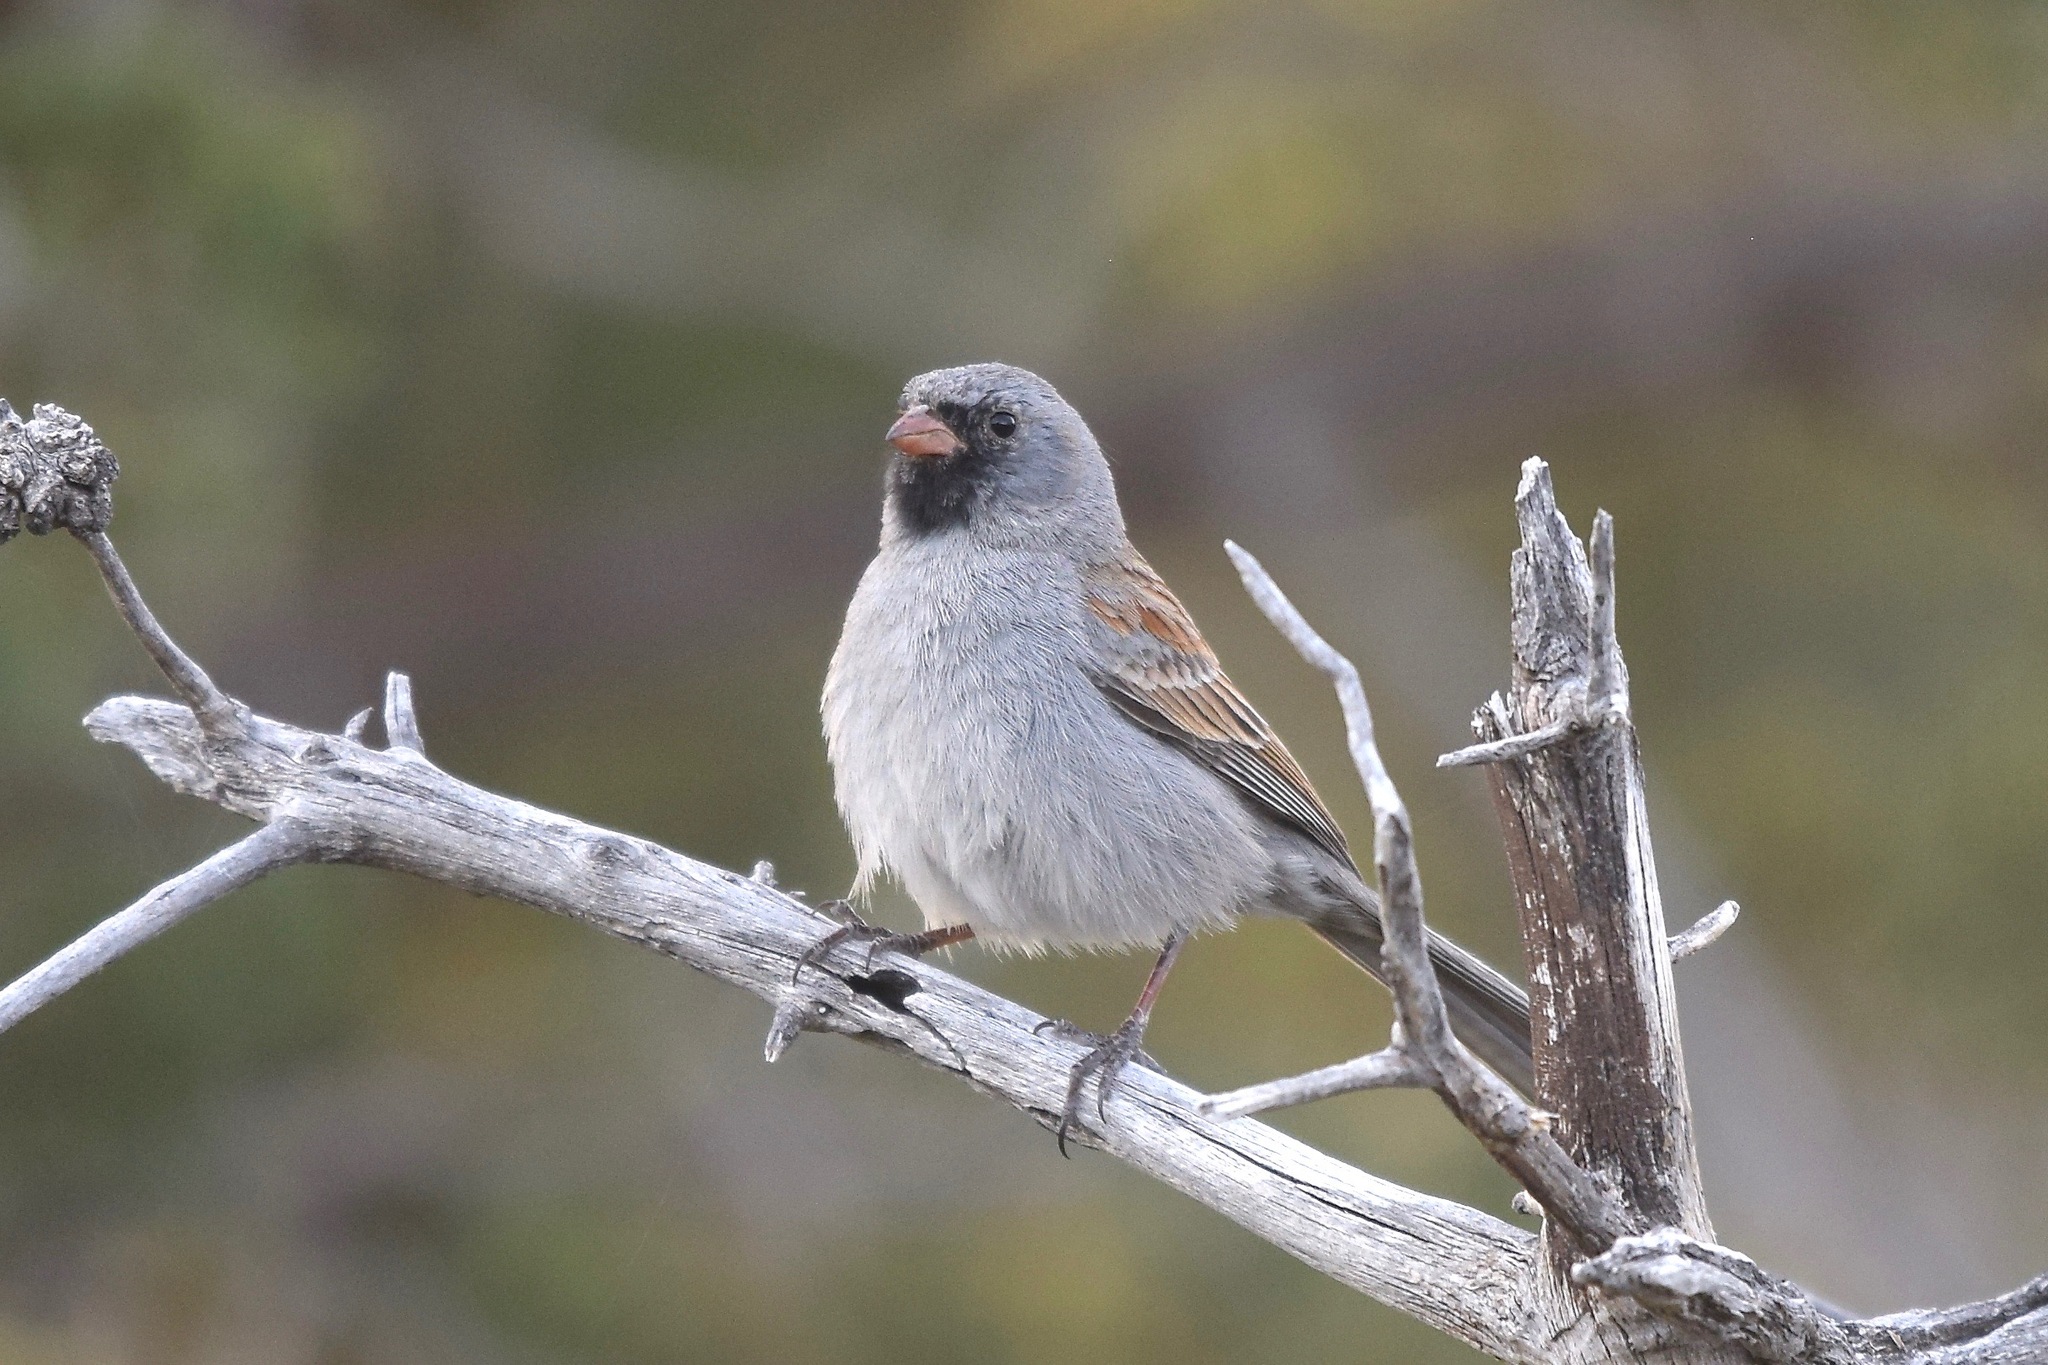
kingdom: Animalia
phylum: Chordata
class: Aves
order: Passeriformes
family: Passerellidae
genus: Spizella
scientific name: Spizella atrogularis
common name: Black-chinned sparrow
